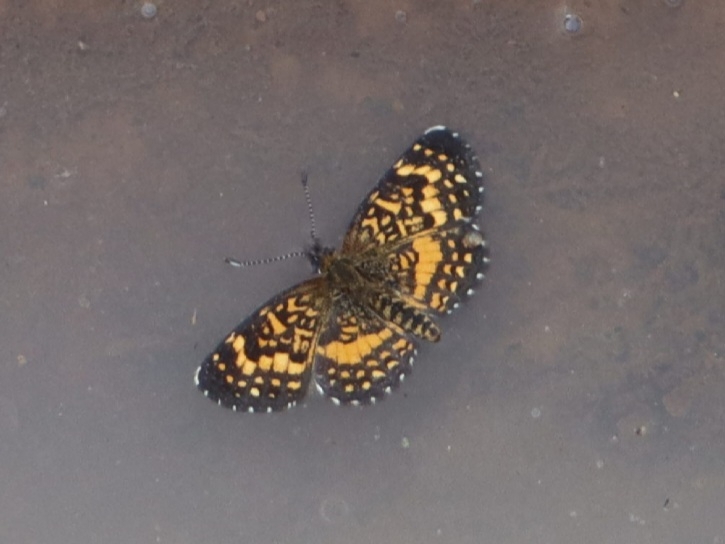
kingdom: Animalia
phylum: Arthropoda
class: Insecta
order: Lepidoptera
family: Nymphalidae
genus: Texola
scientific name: Texola elada
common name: Elada checkerspot
